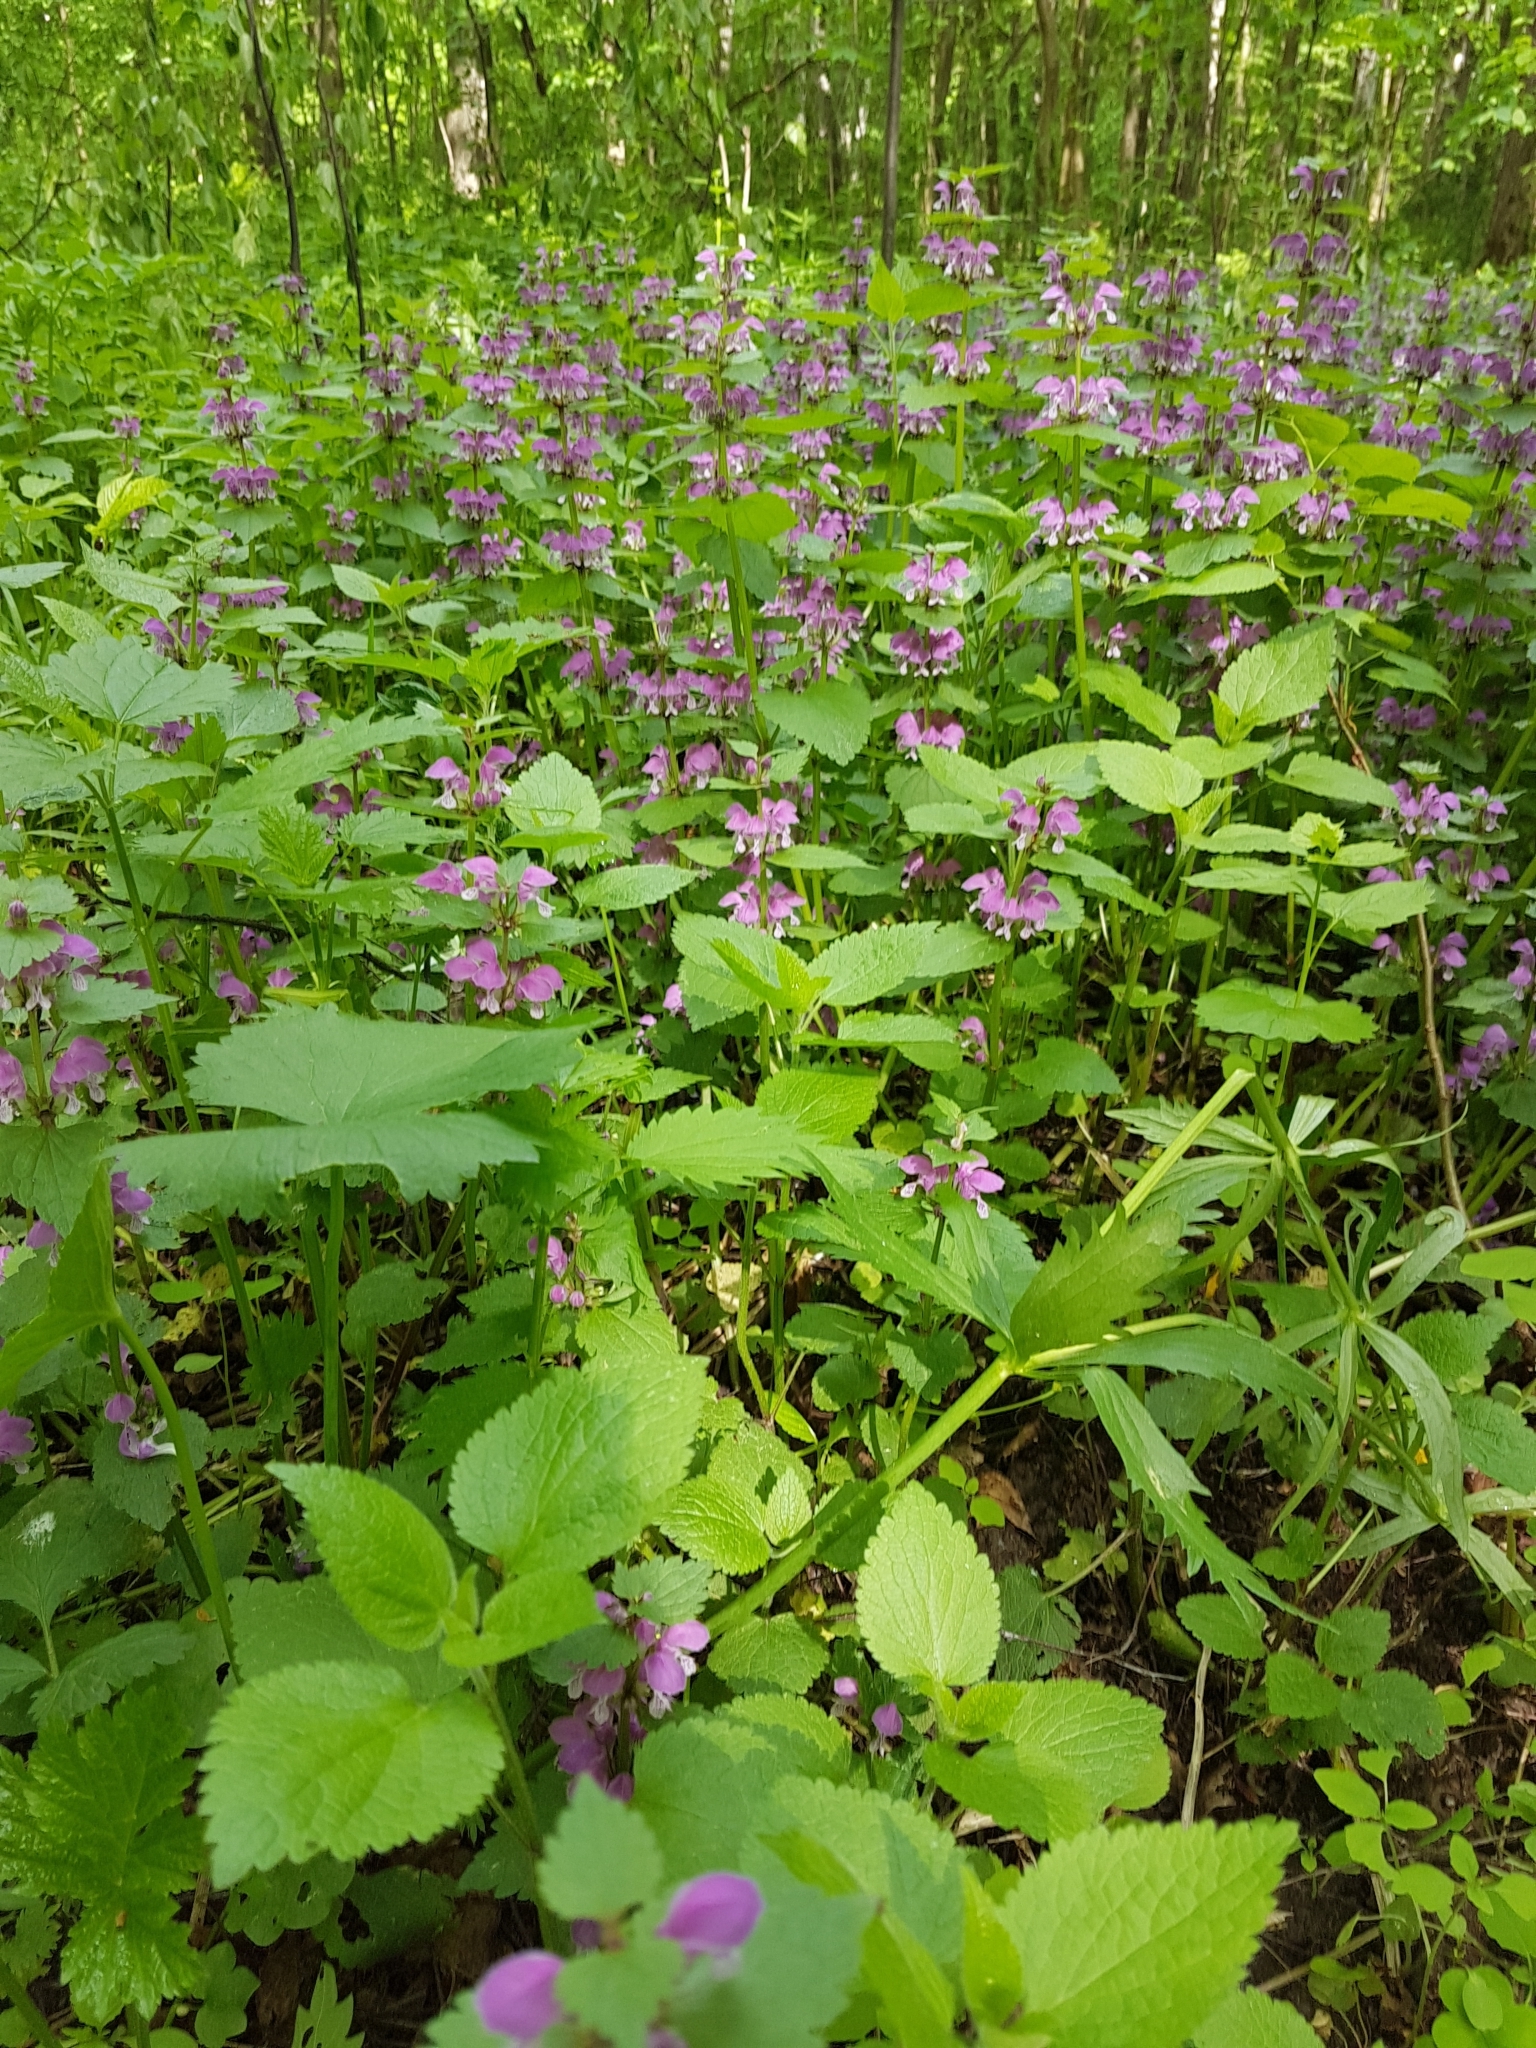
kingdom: Plantae
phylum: Tracheophyta
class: Magnoliopsida
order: Lamiales
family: Lamiaceae
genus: Lamium
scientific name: Lamium maculatum
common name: Spotted dead-nettle
